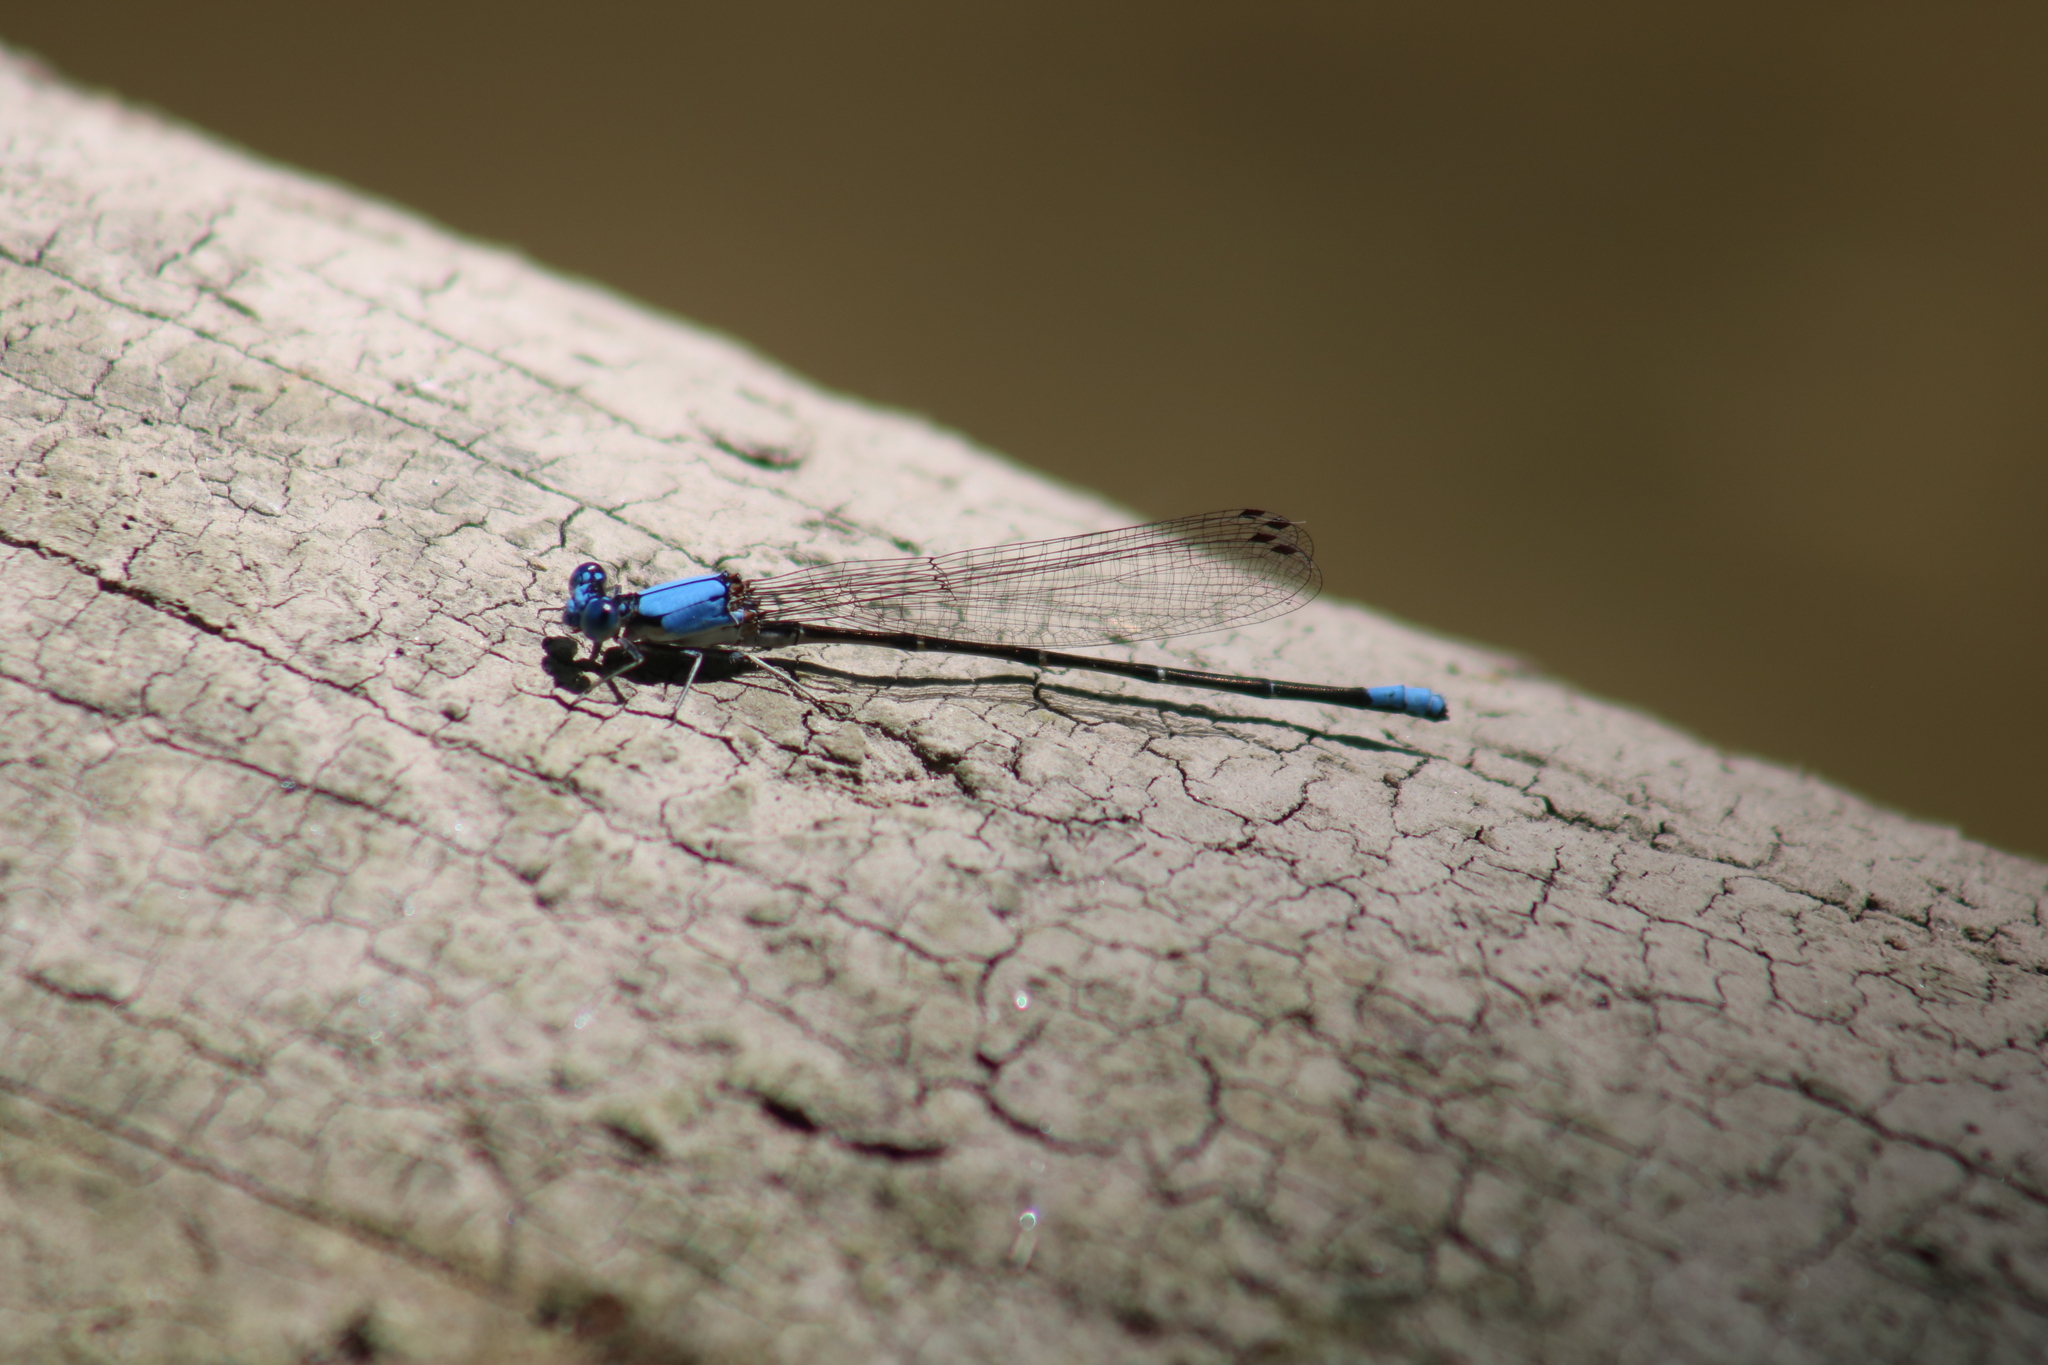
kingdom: Animalia
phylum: Arthropoda
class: Insecta
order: Odonata
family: Coenagrionidae
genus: Argia
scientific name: Argia apicalis
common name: Blue-fronted dancer
